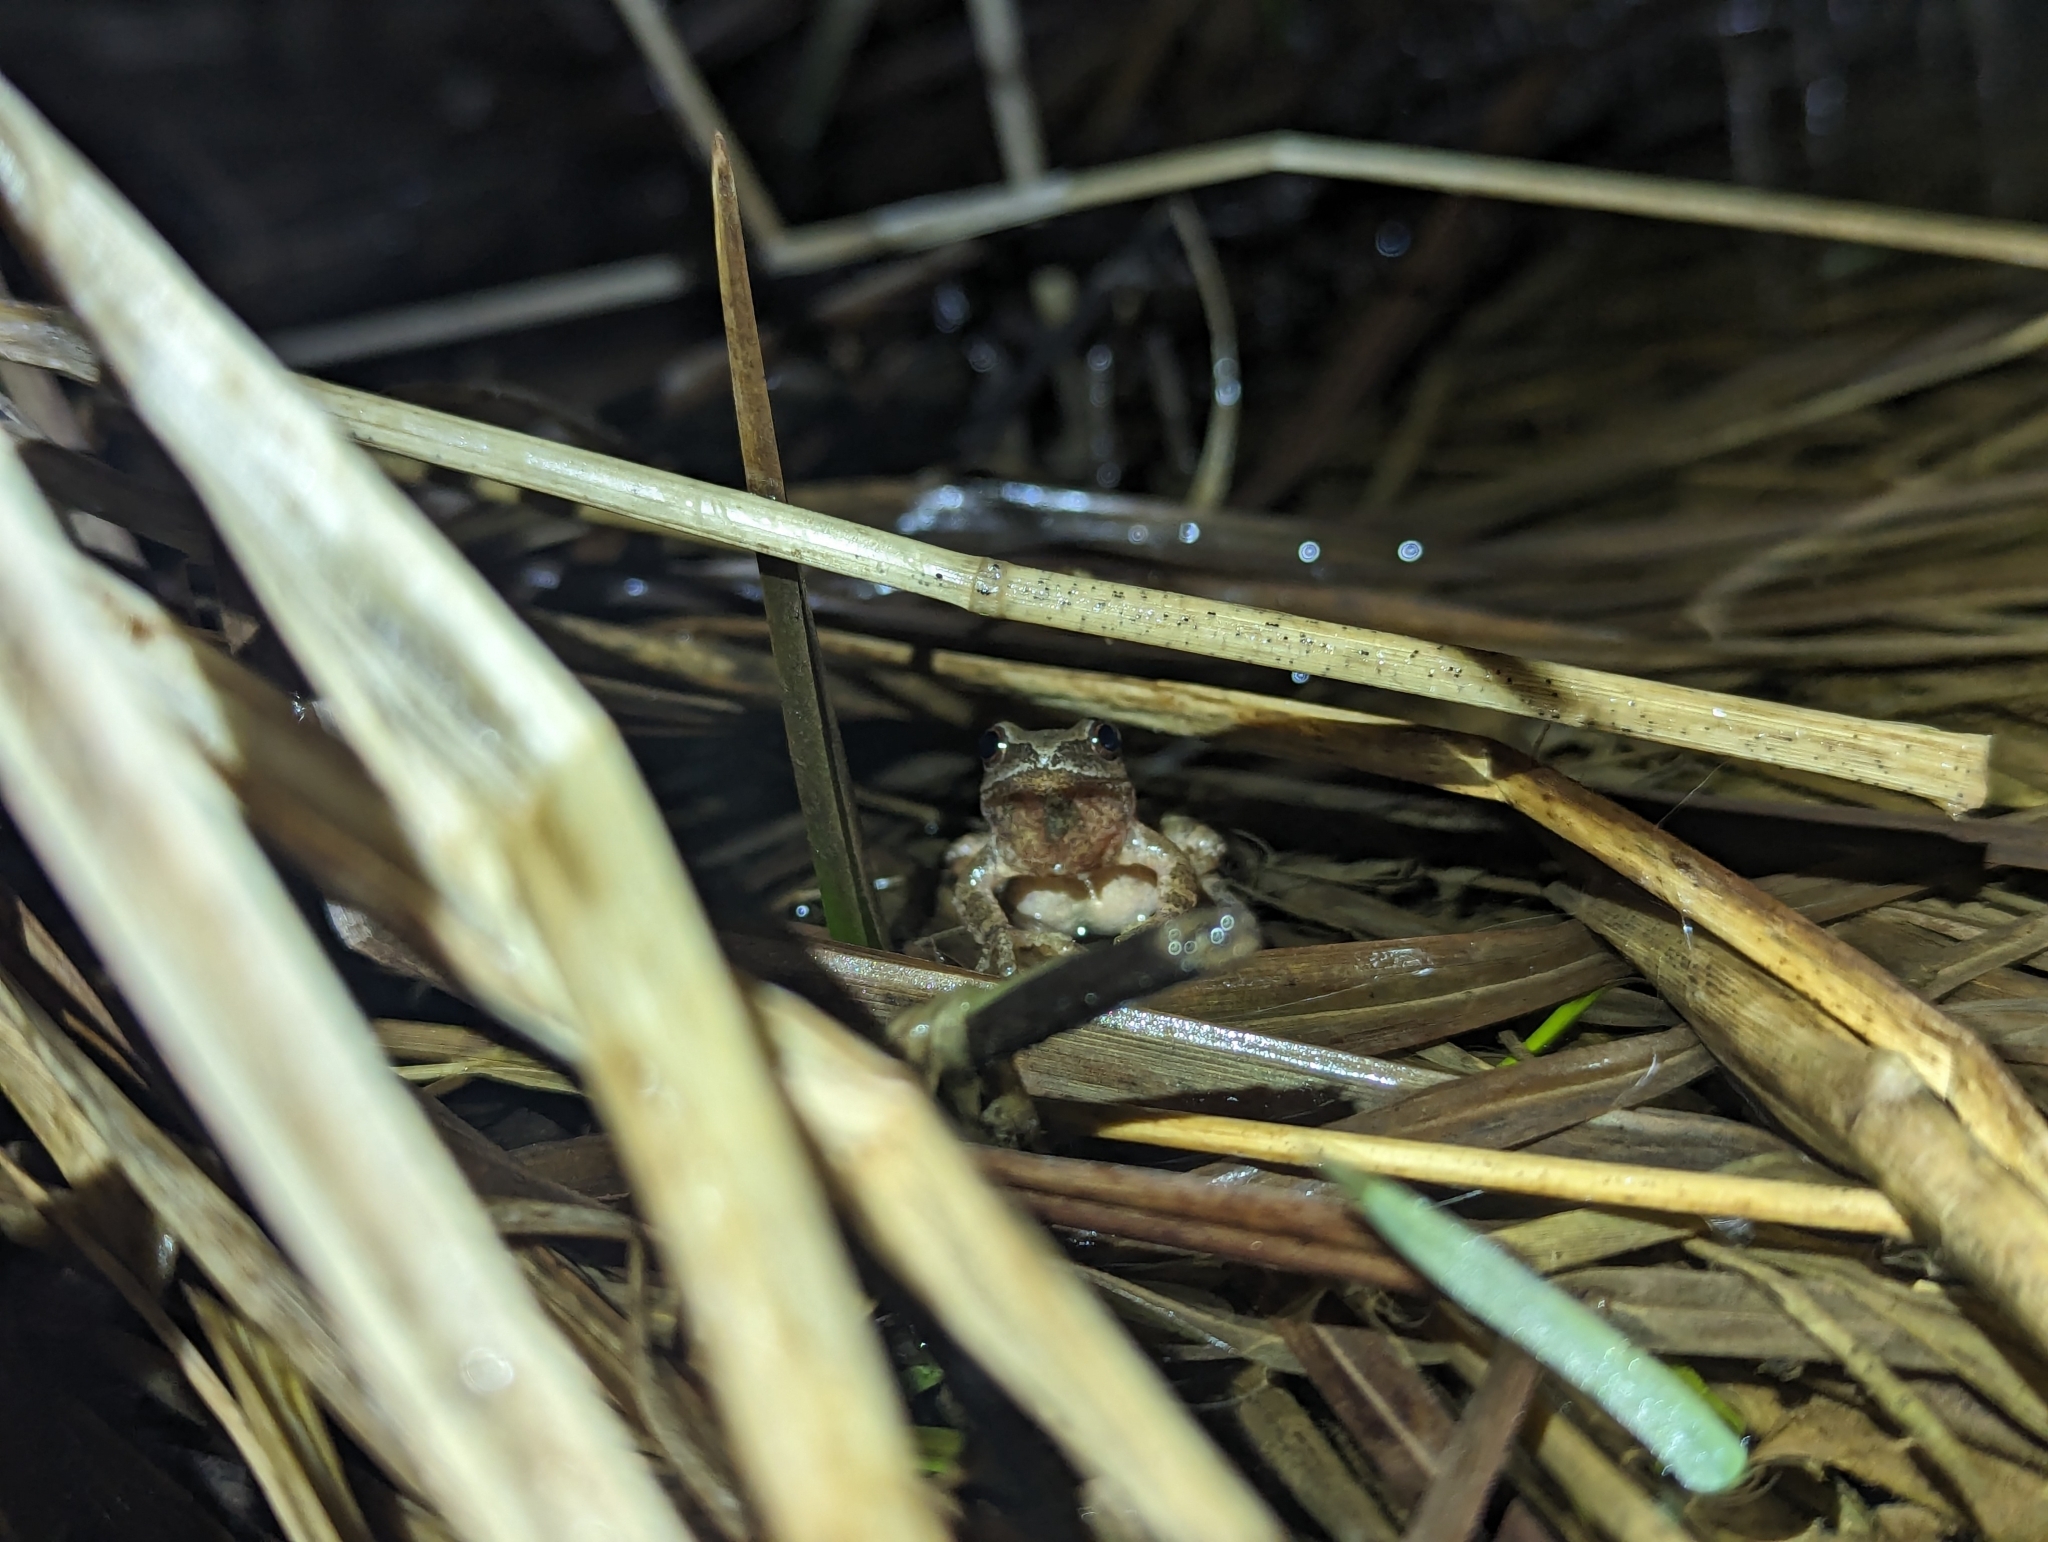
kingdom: Animalia
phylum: Chordata
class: Amphibia
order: Anura
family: Hylidae
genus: Pseudacris
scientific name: Pseudacris crucifer
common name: Spring peeper
